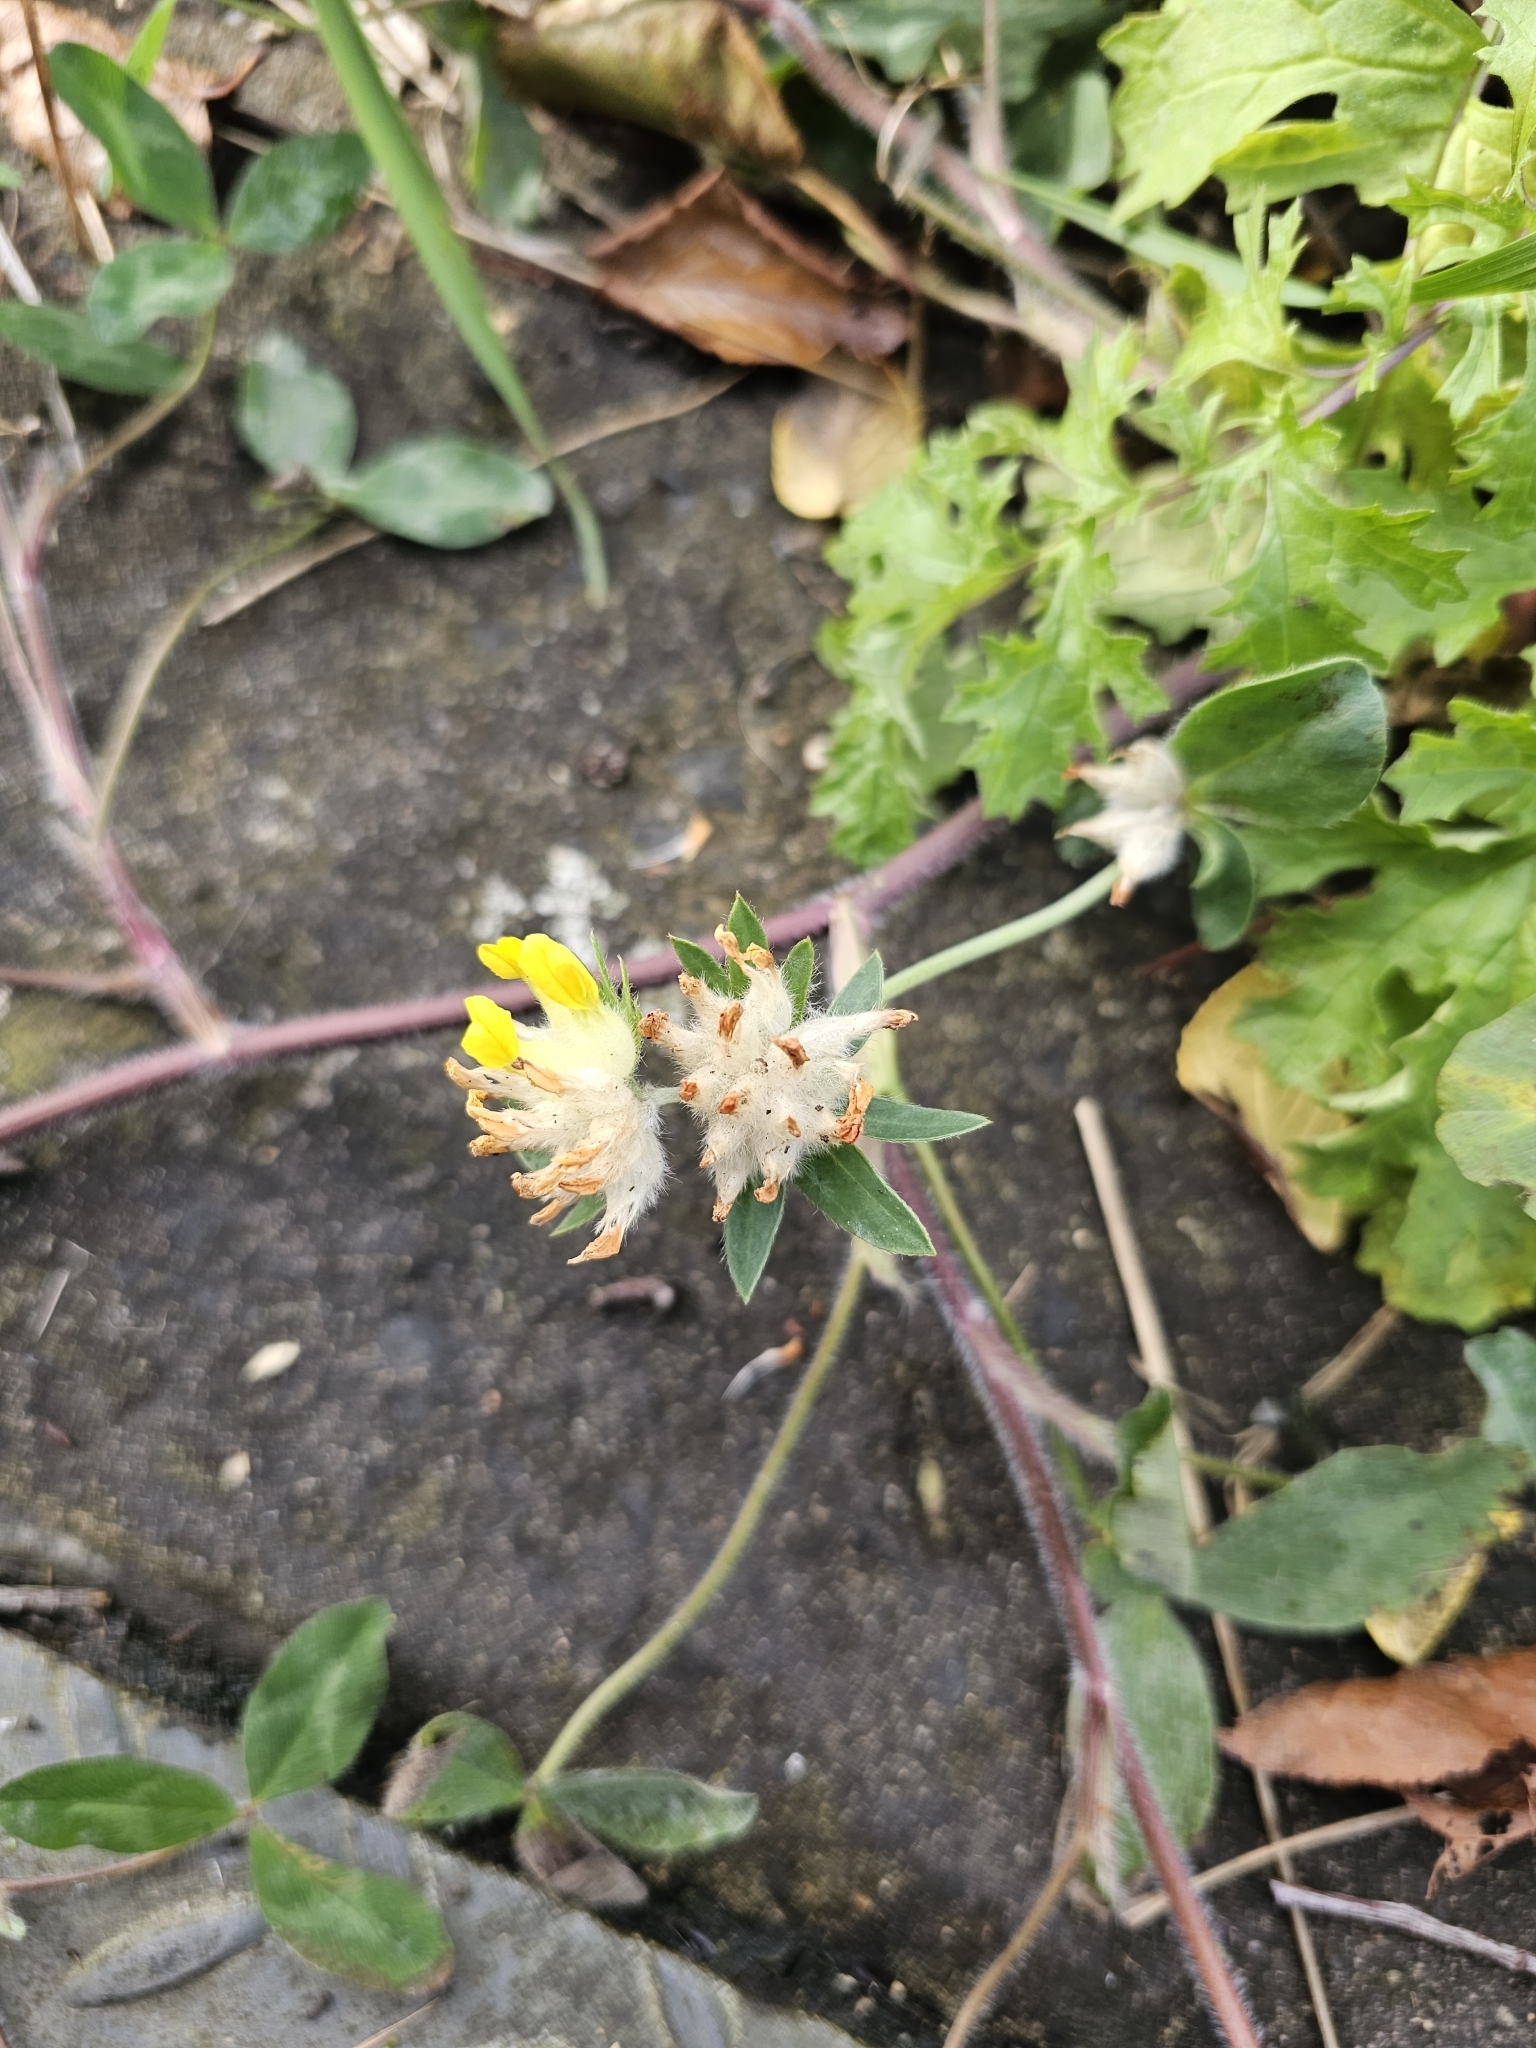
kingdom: Plantae
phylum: Tracheophyta
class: Magnoliopsida
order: Fabales
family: Fabaceae
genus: Anthyllis
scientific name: Anthyllis vulneraria
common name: Kidney vetch
